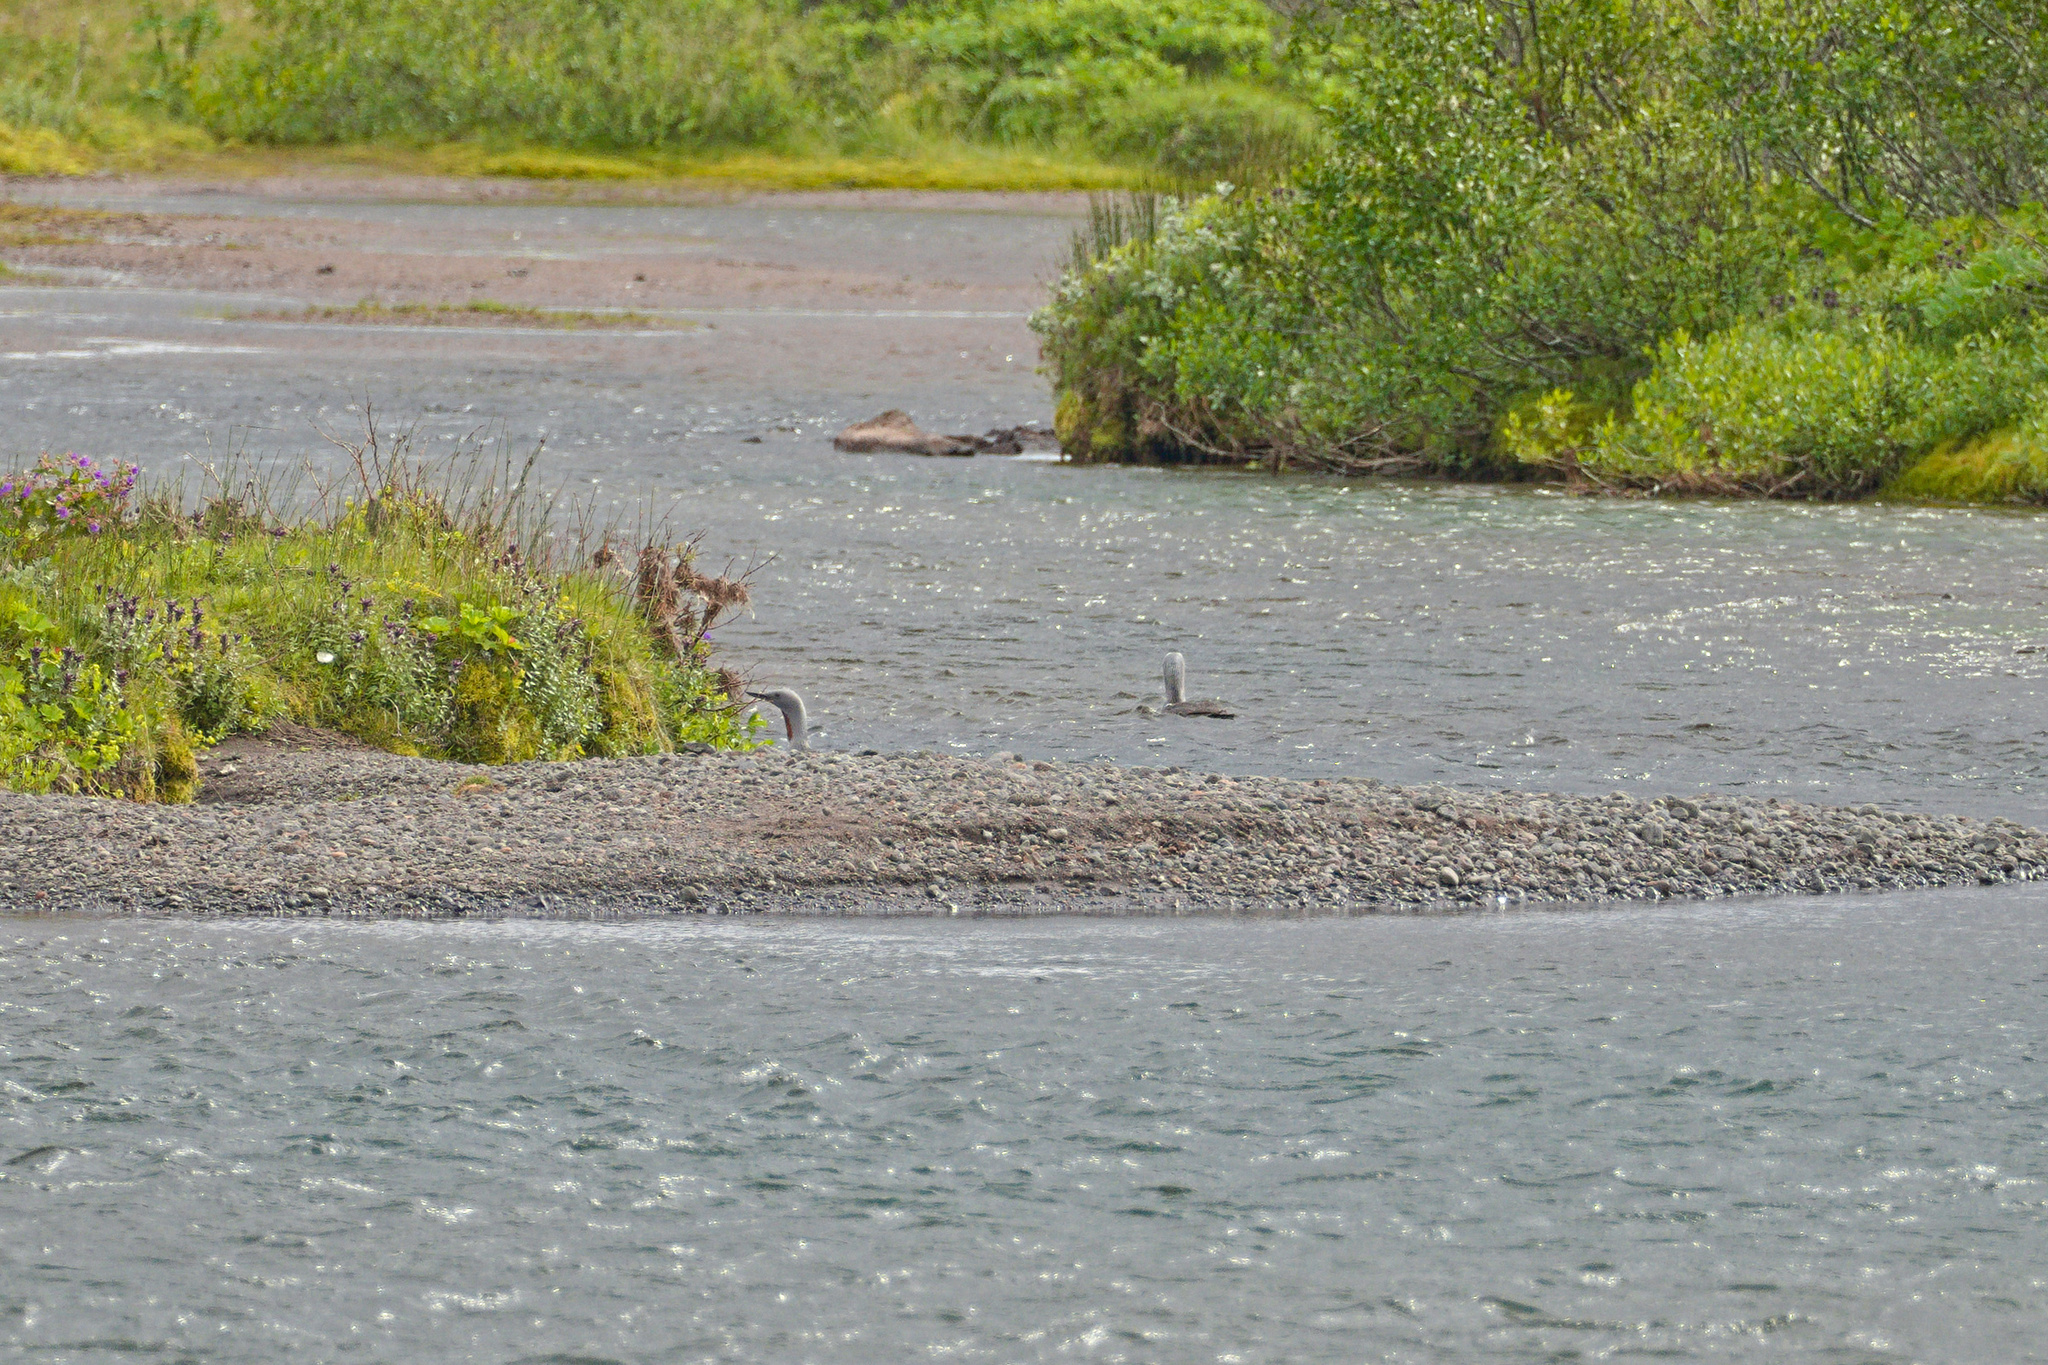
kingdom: Animalia
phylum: Chordata
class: Aves
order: Gaviiformes
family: Gaviidae
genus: Gavia
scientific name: Gavia stellata
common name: Red-throated loon
